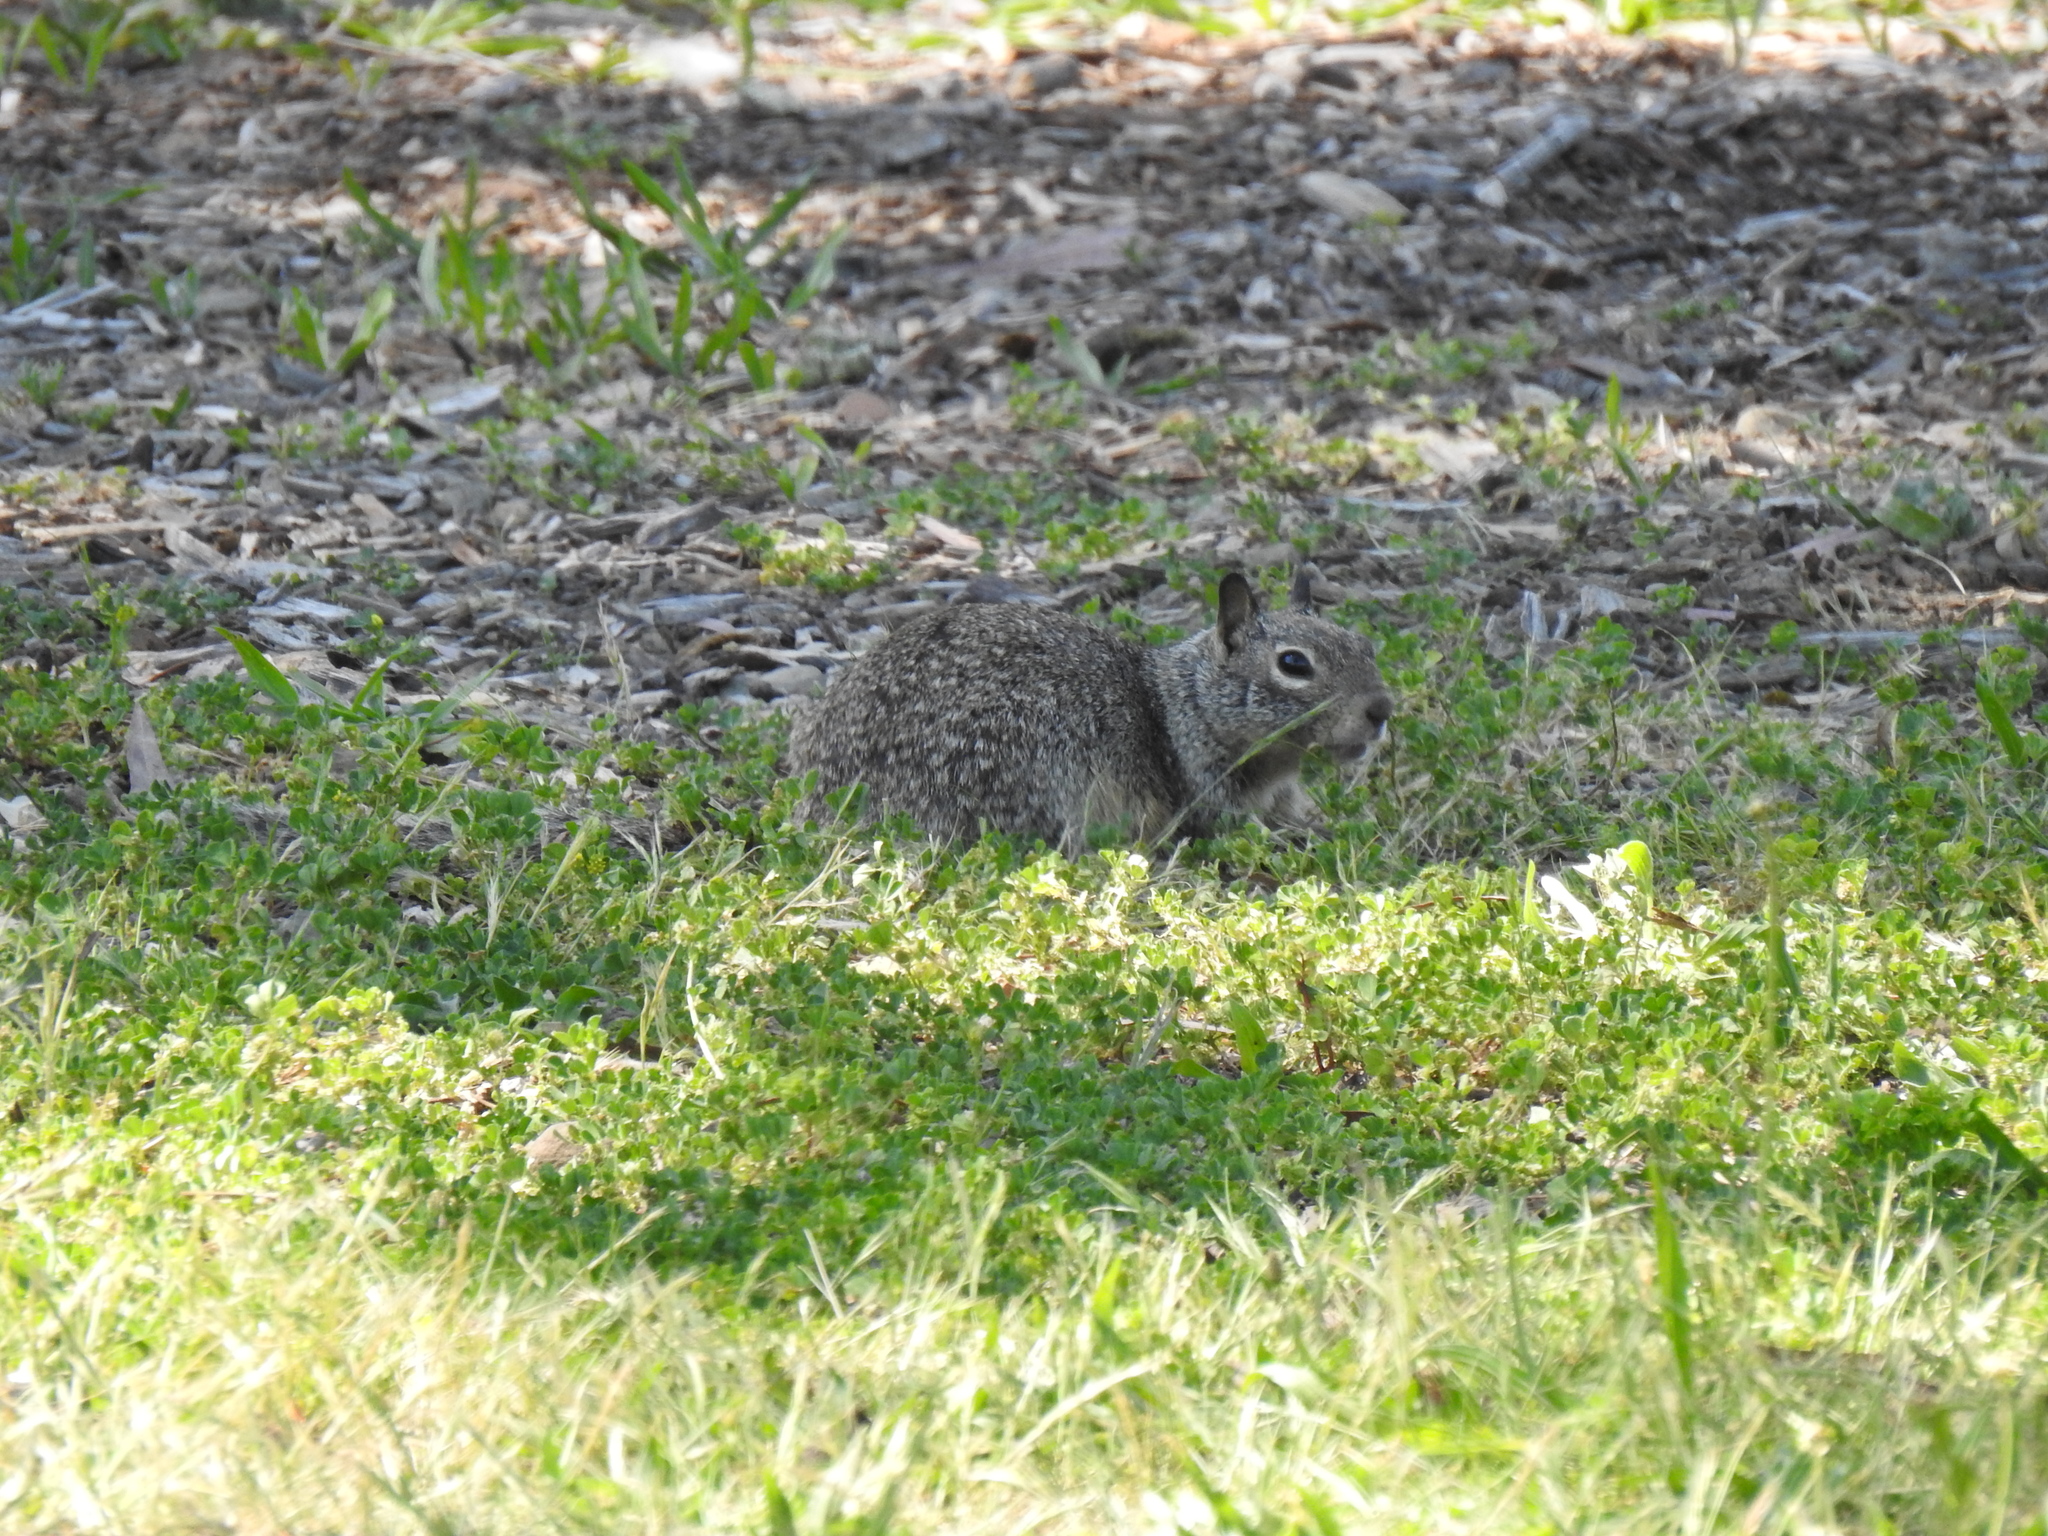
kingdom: Animalia
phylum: Chordata
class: Mammalia
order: Rodentia
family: Sciuridae
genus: Otospermophilus
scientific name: Otospermophilus beecheyi
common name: California ground squirrel
